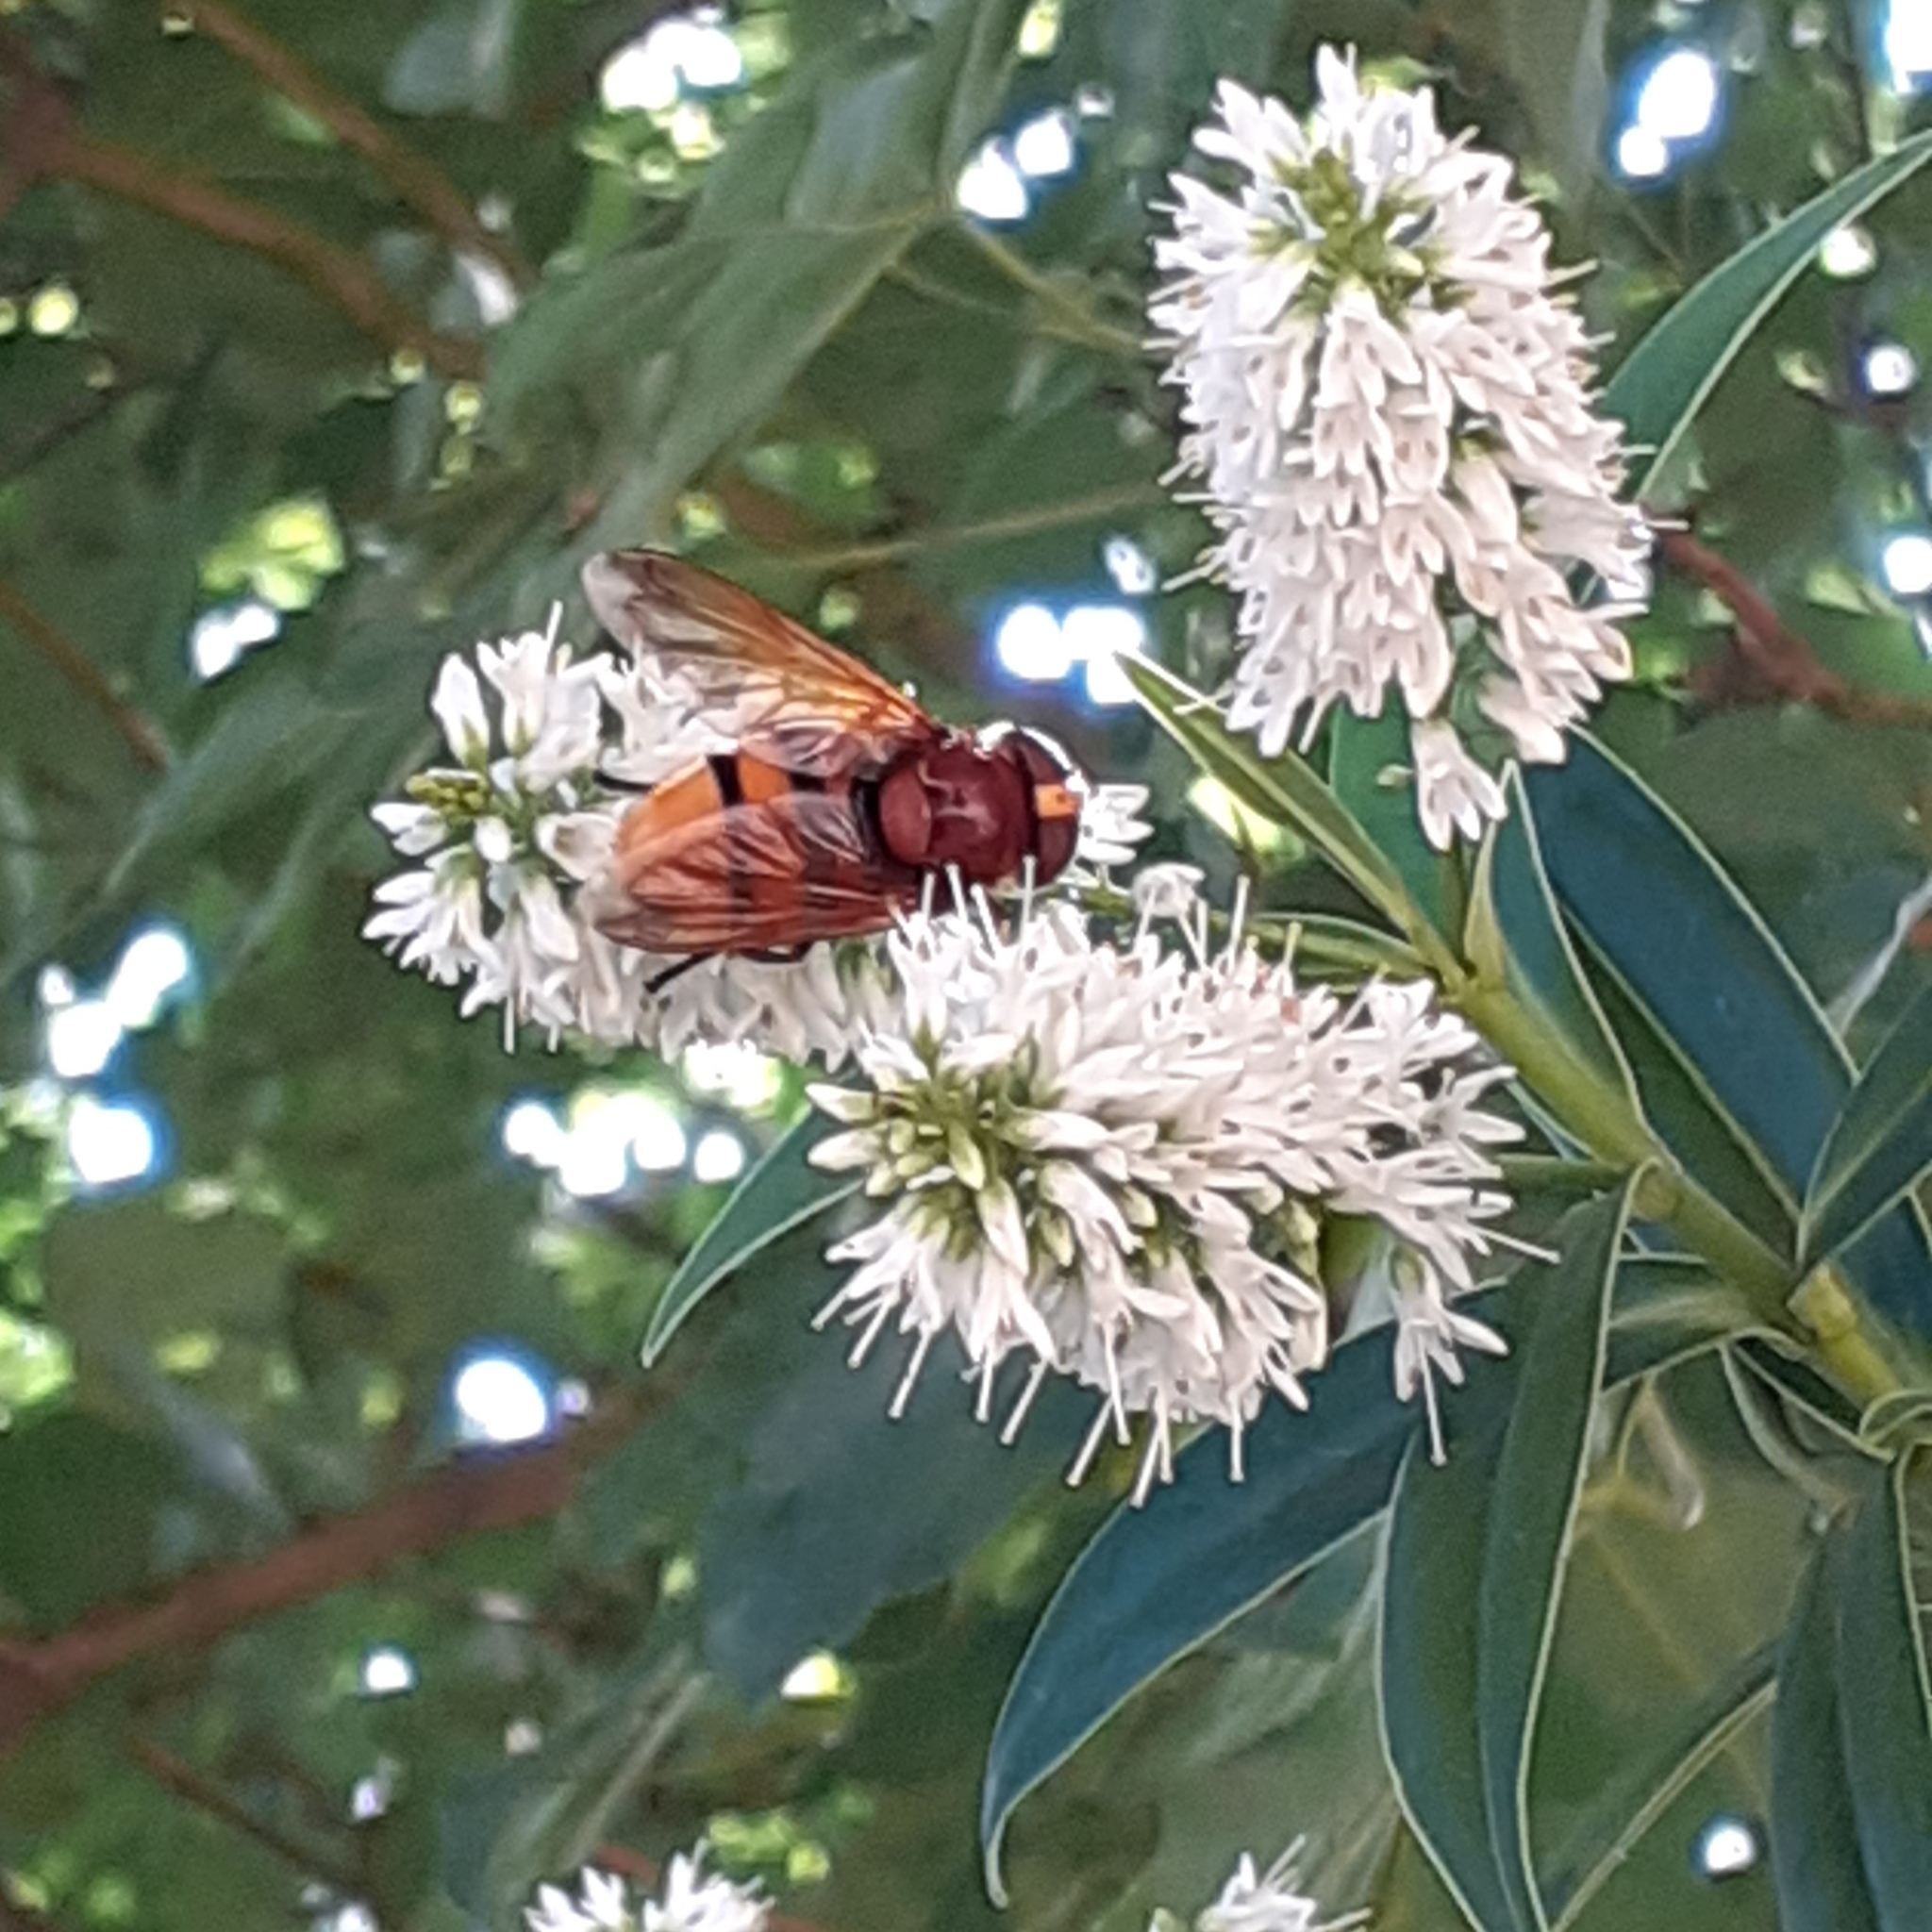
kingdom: Animalia
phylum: Arthropoda
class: Insecta
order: Diptera
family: Syrphidae
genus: Volucella
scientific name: Volucella zonaria
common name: Hornet hoverfly
